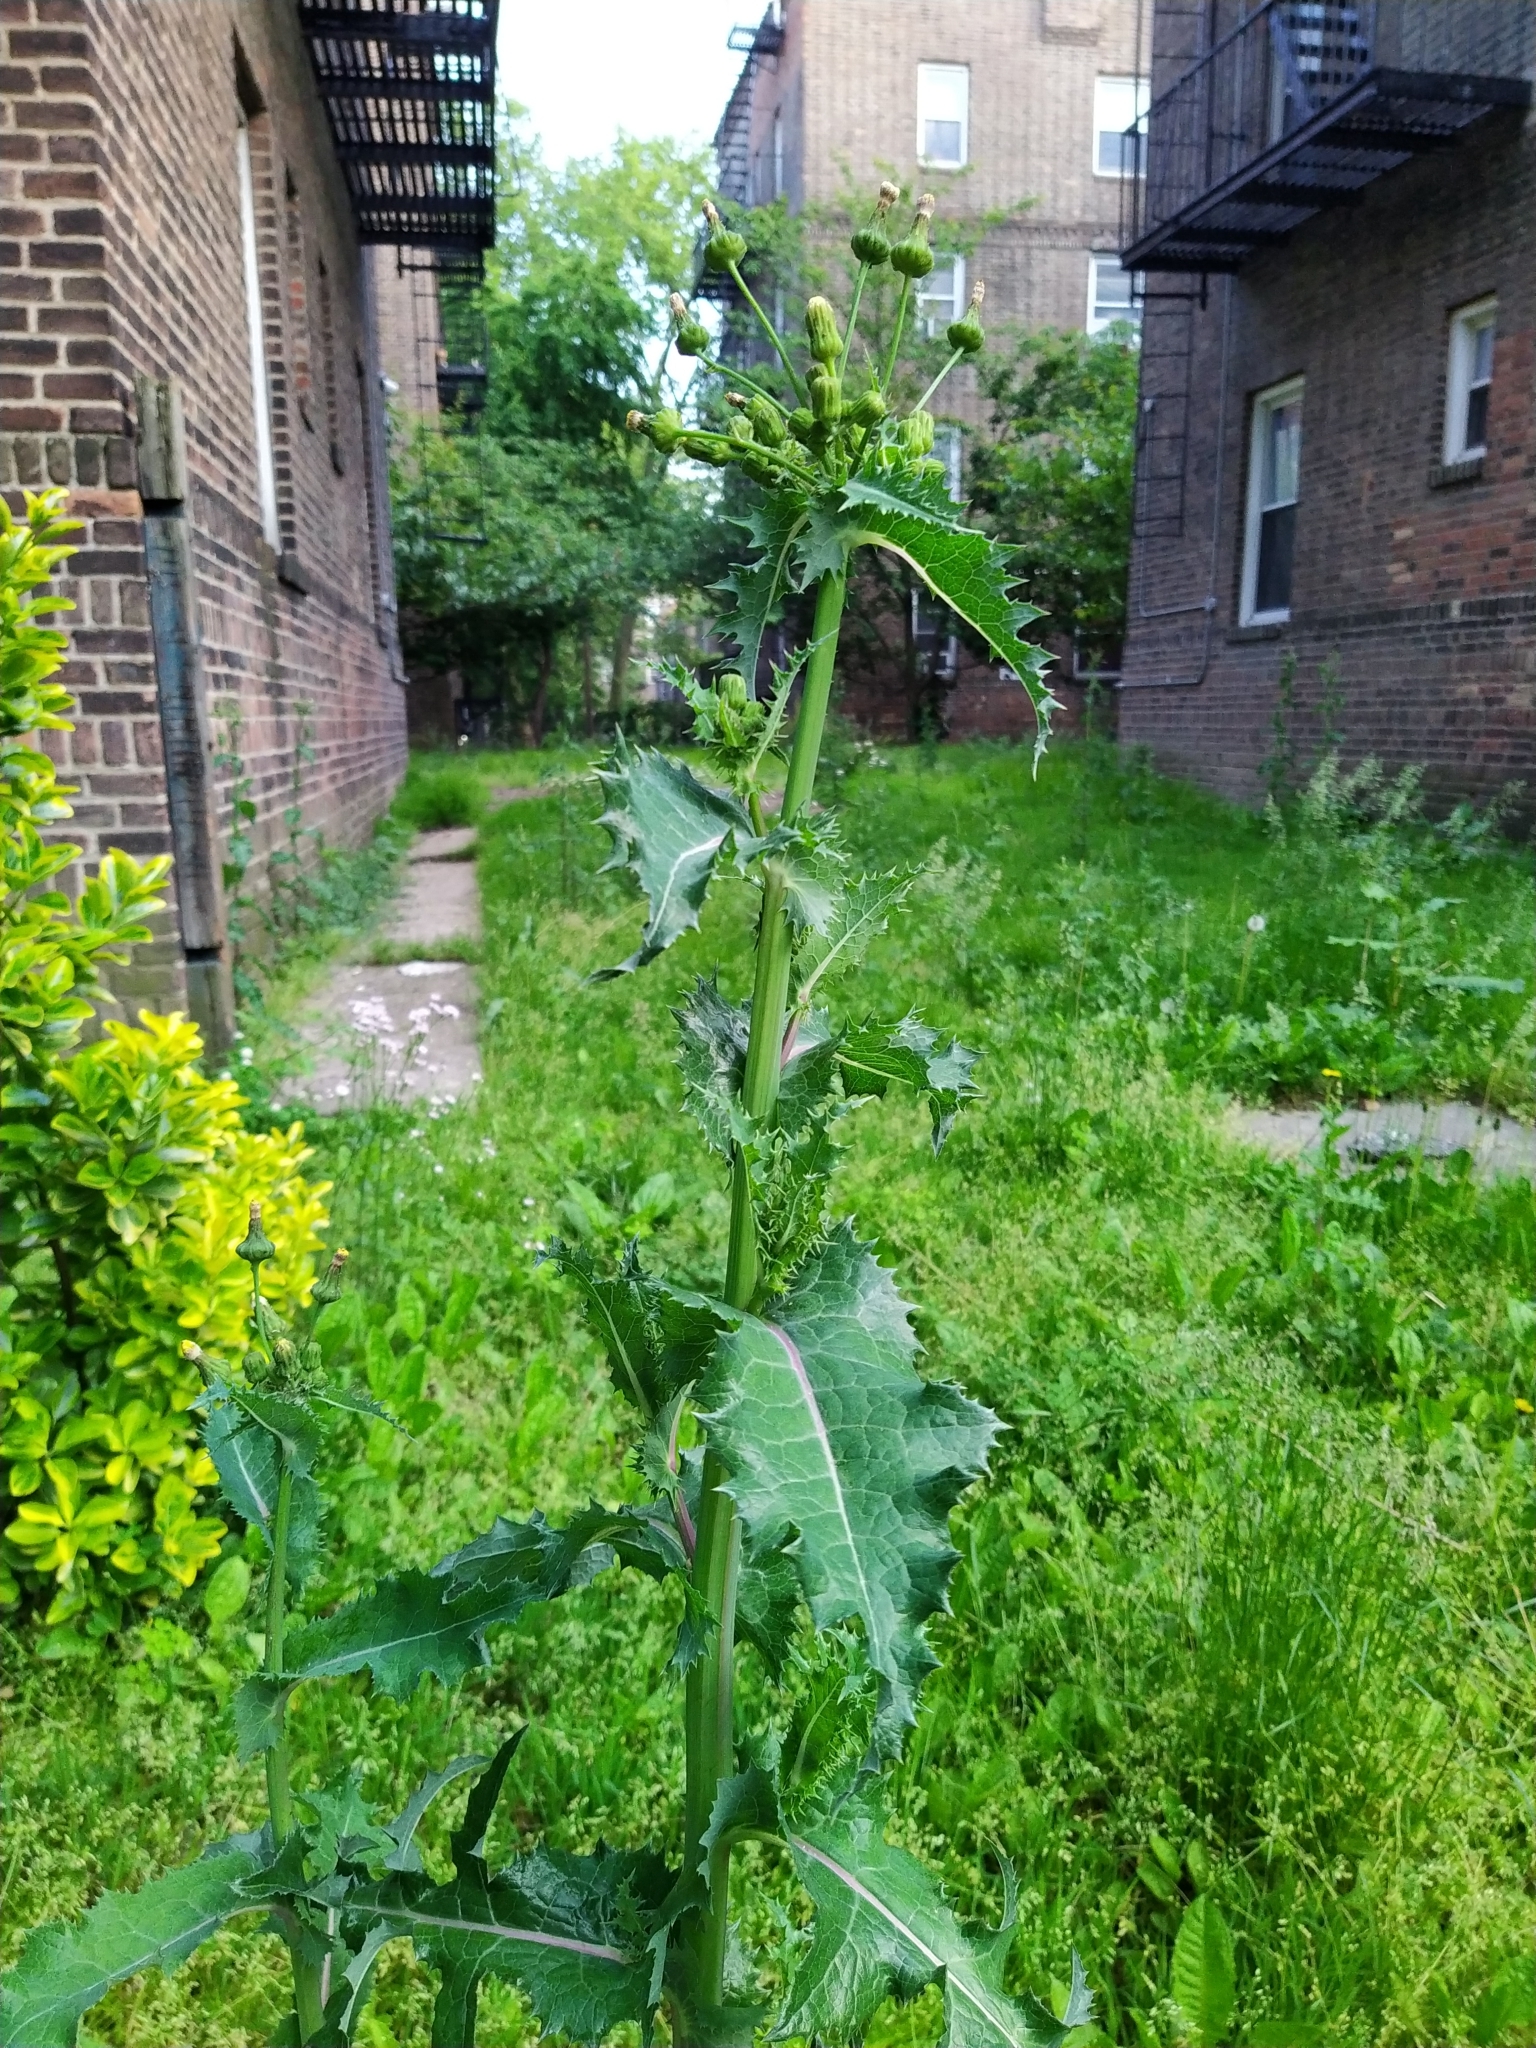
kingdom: Plantae
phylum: Tracheophyta
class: Magnoliopsida
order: Asterales
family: Asteraceae
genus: Sonchus
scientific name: Sonchus oleraceus
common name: Common sowthistle
